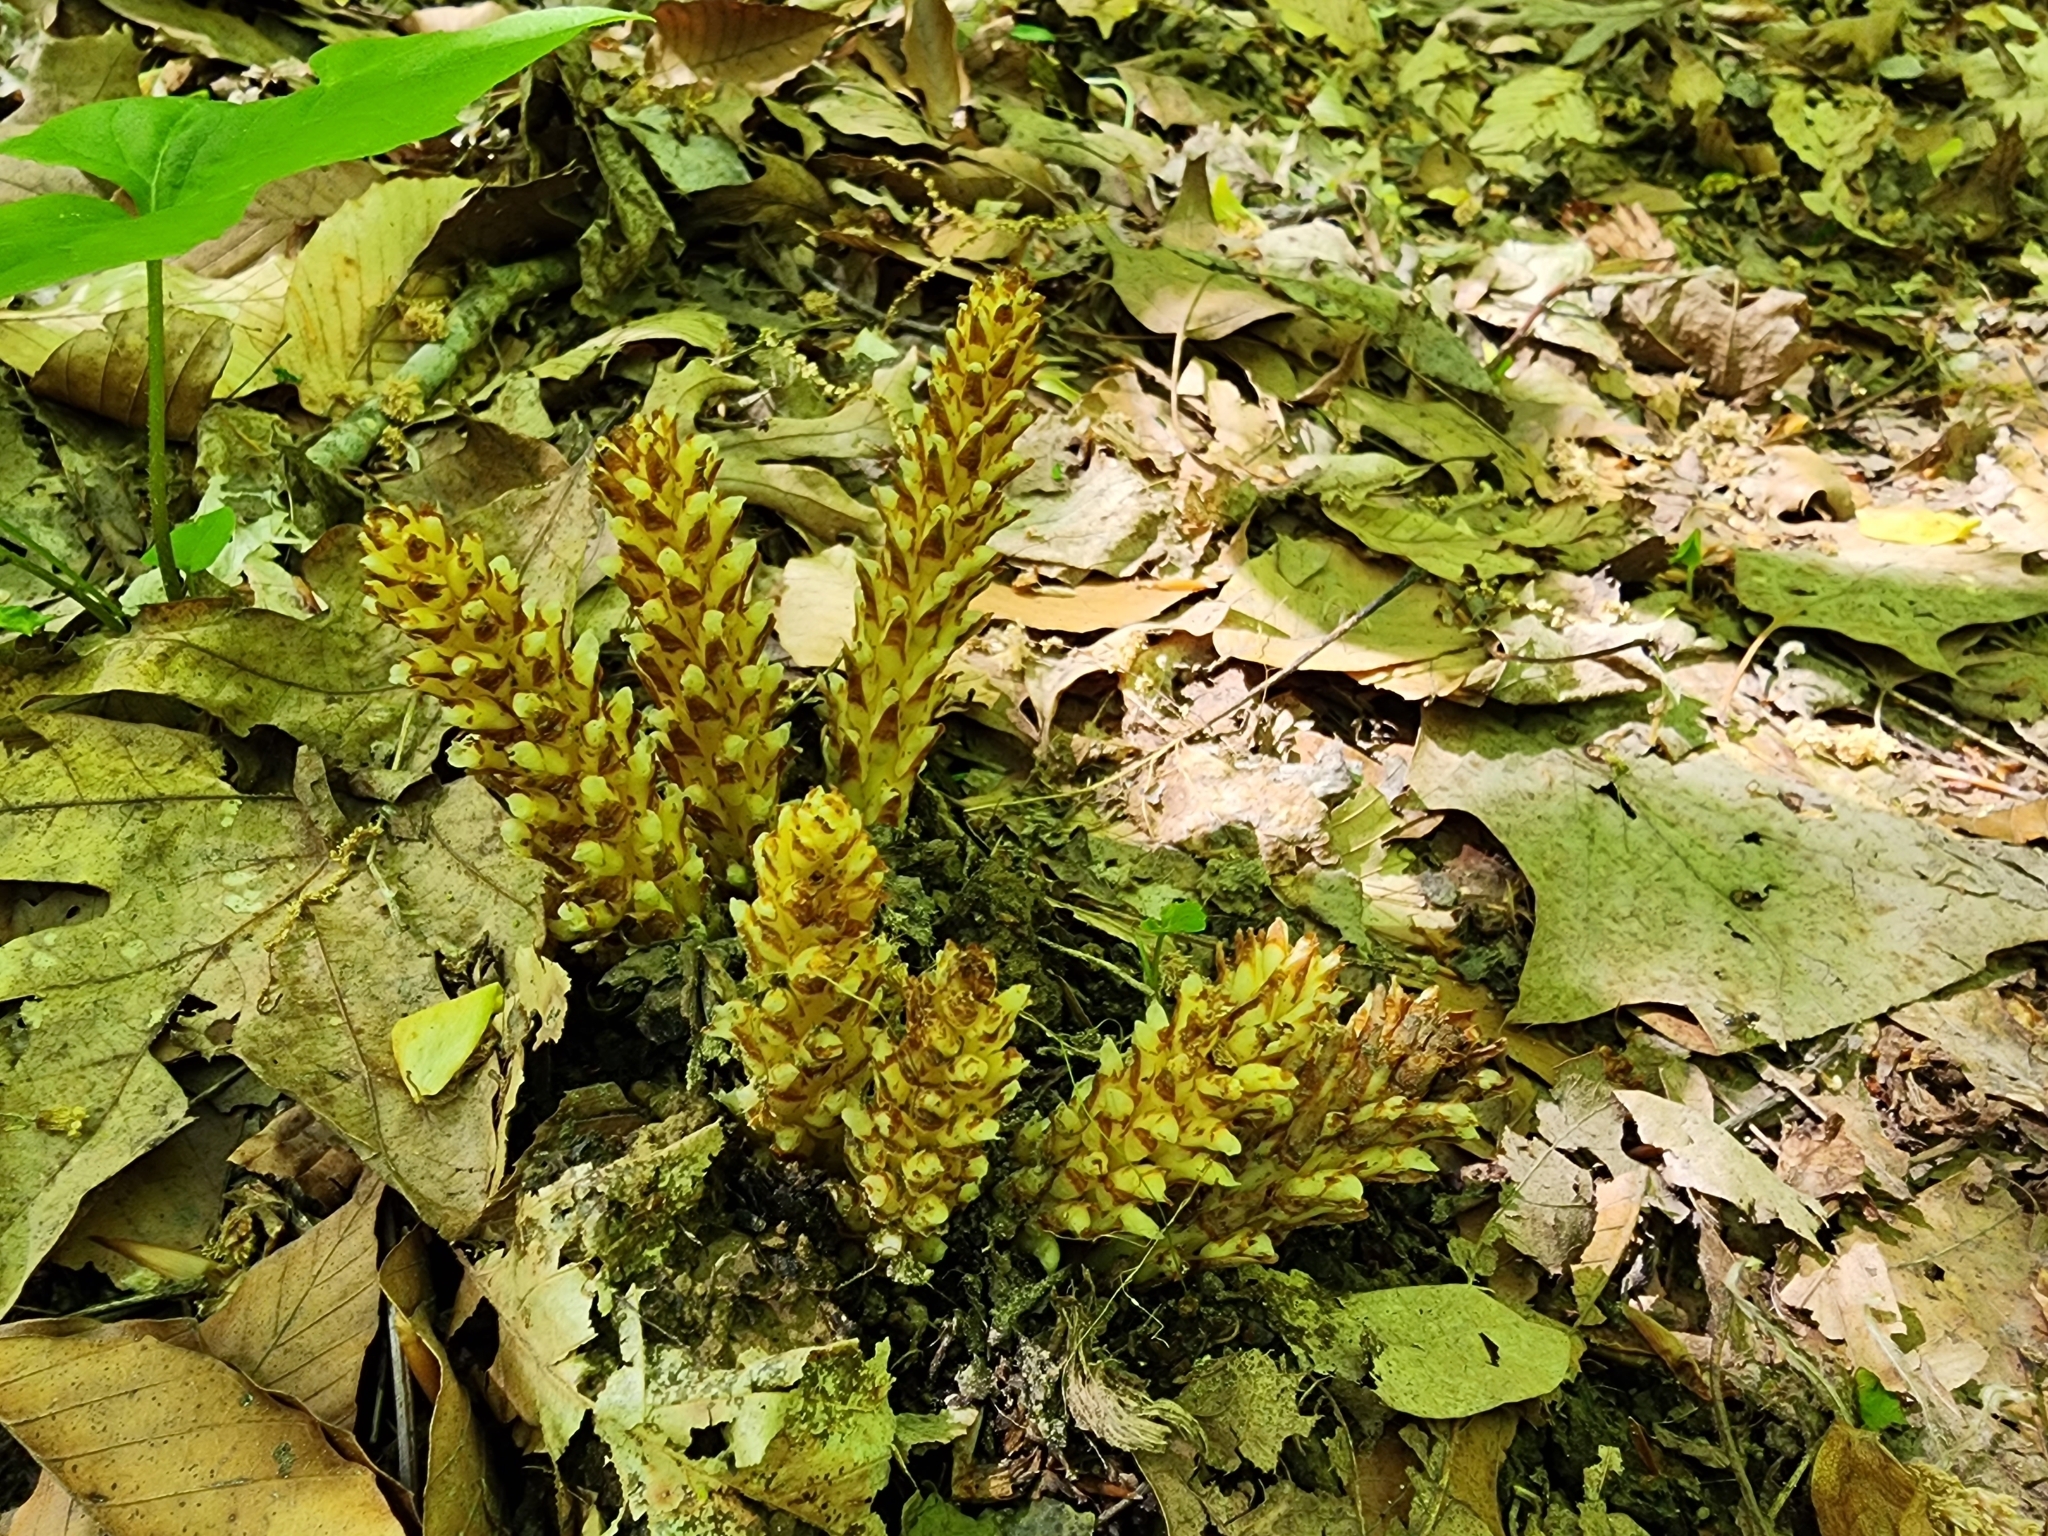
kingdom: Plantae
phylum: Tracheophyta
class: Magnoliopsida
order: Lamiales
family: Orobanchaceae
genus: Conopholis
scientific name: Conopholis americana
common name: American cancer-root
